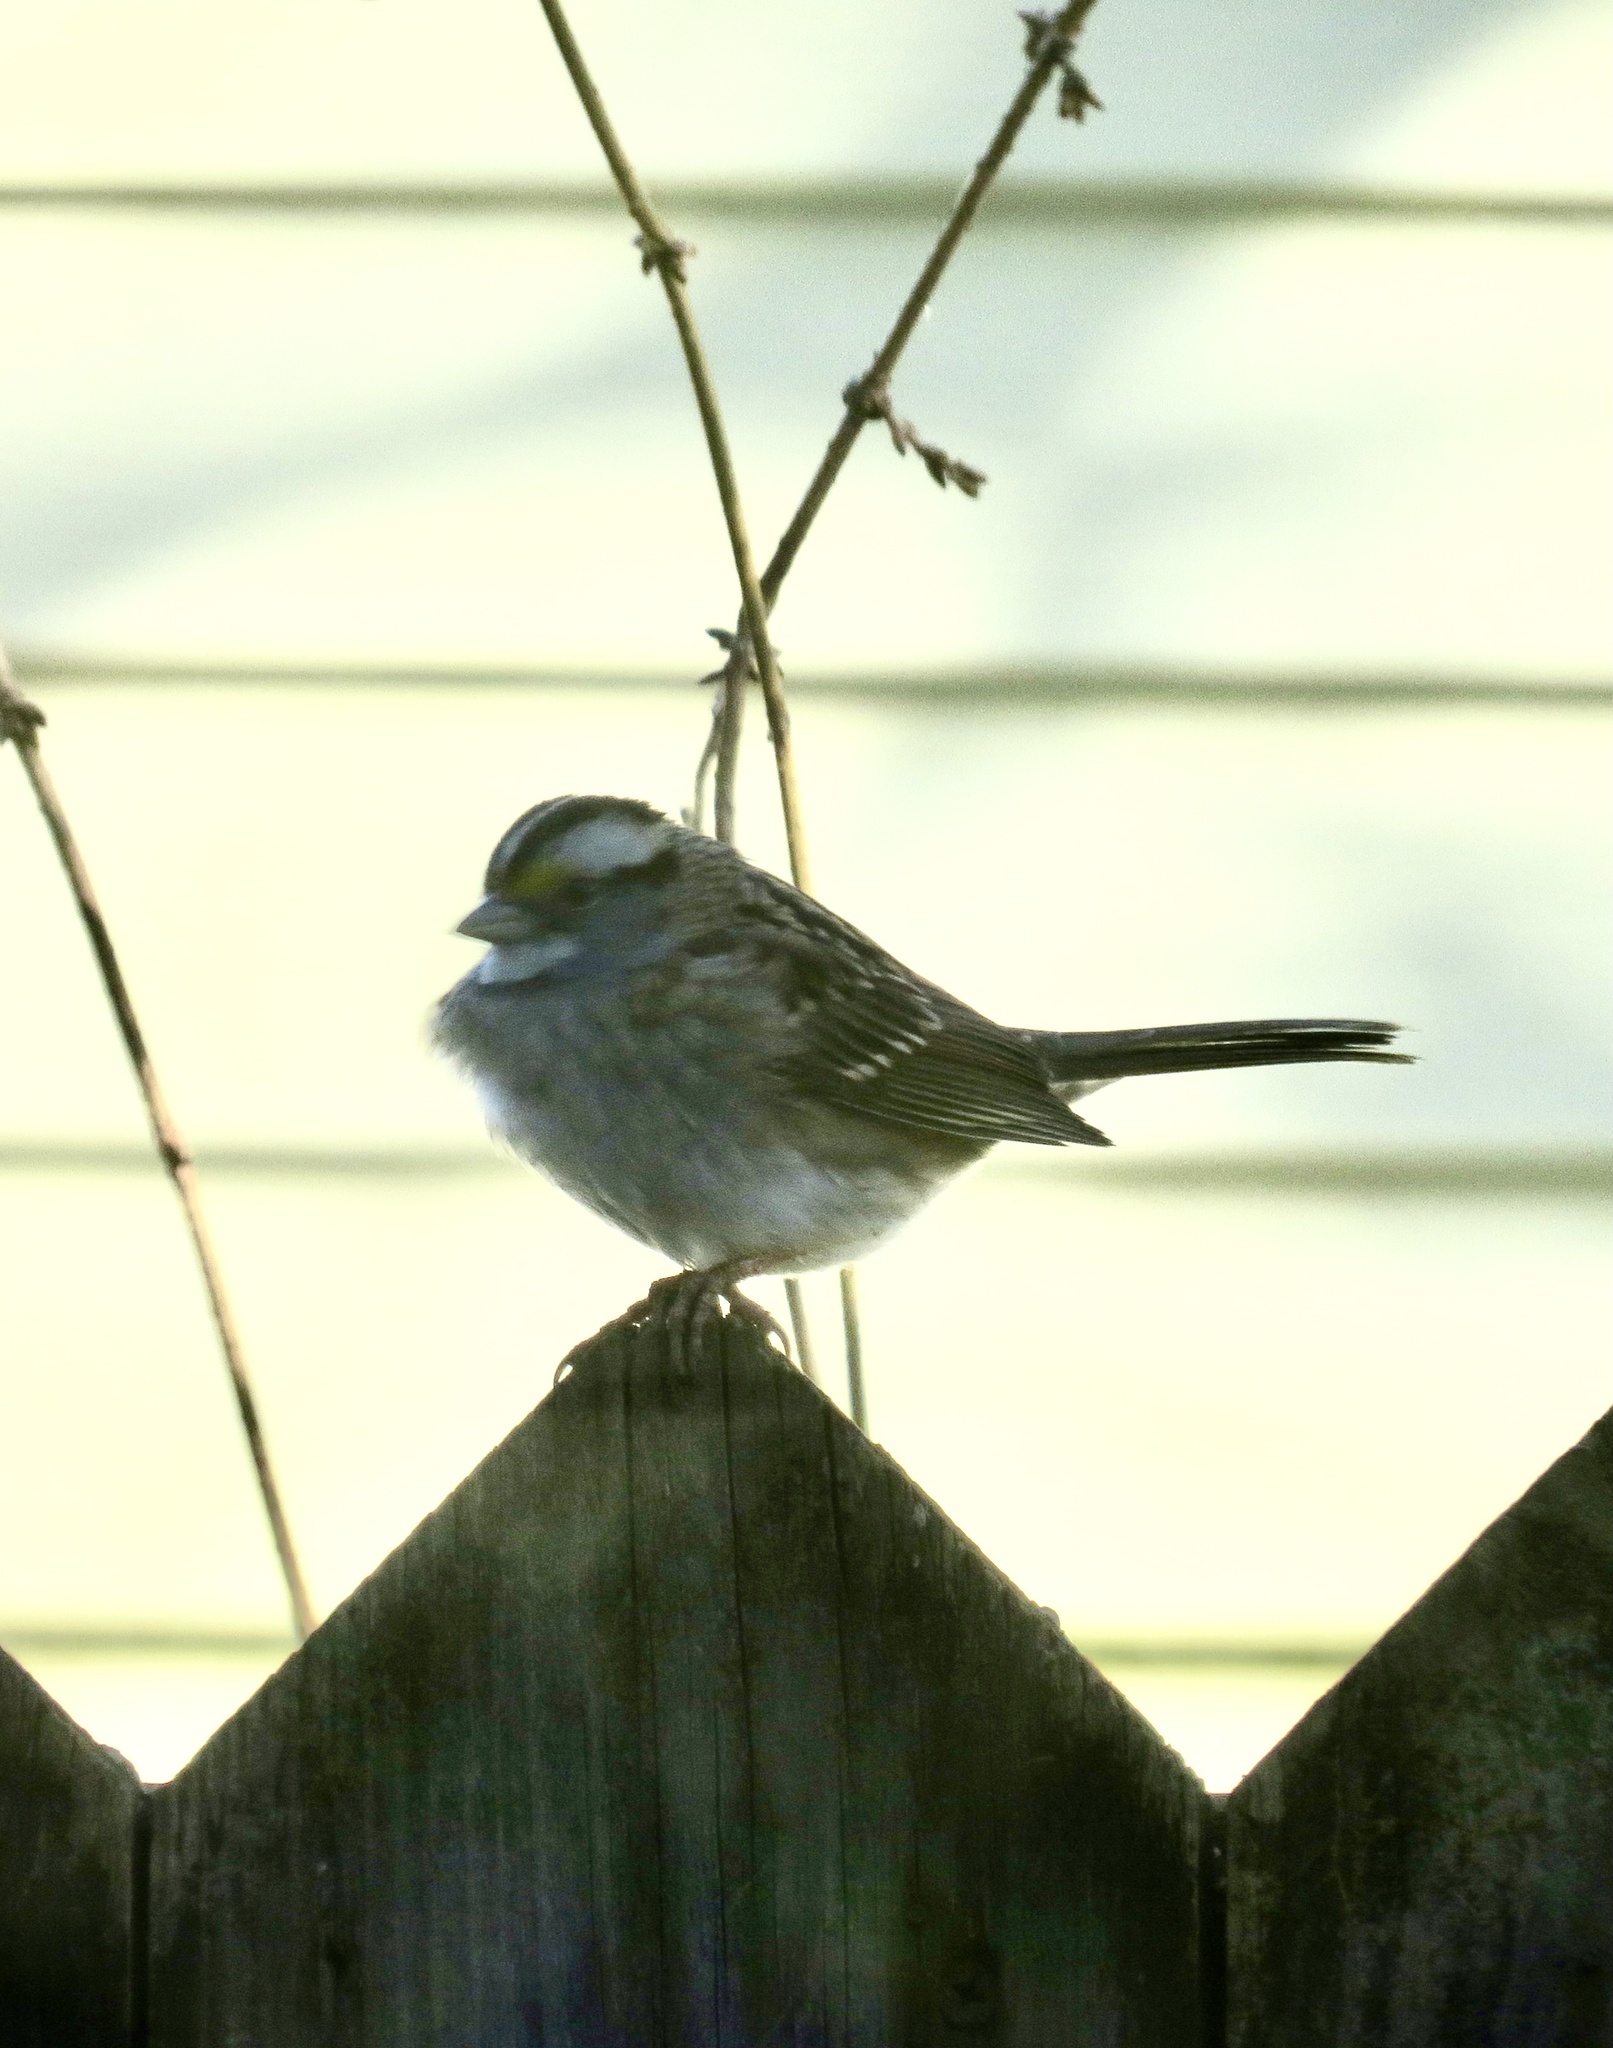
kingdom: Animalia
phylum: Chordata
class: Aves
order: Passeriformes
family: Passerellidae
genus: Zonotrichia
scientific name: Zonotrichia albicollis
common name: White-throated sparrow
